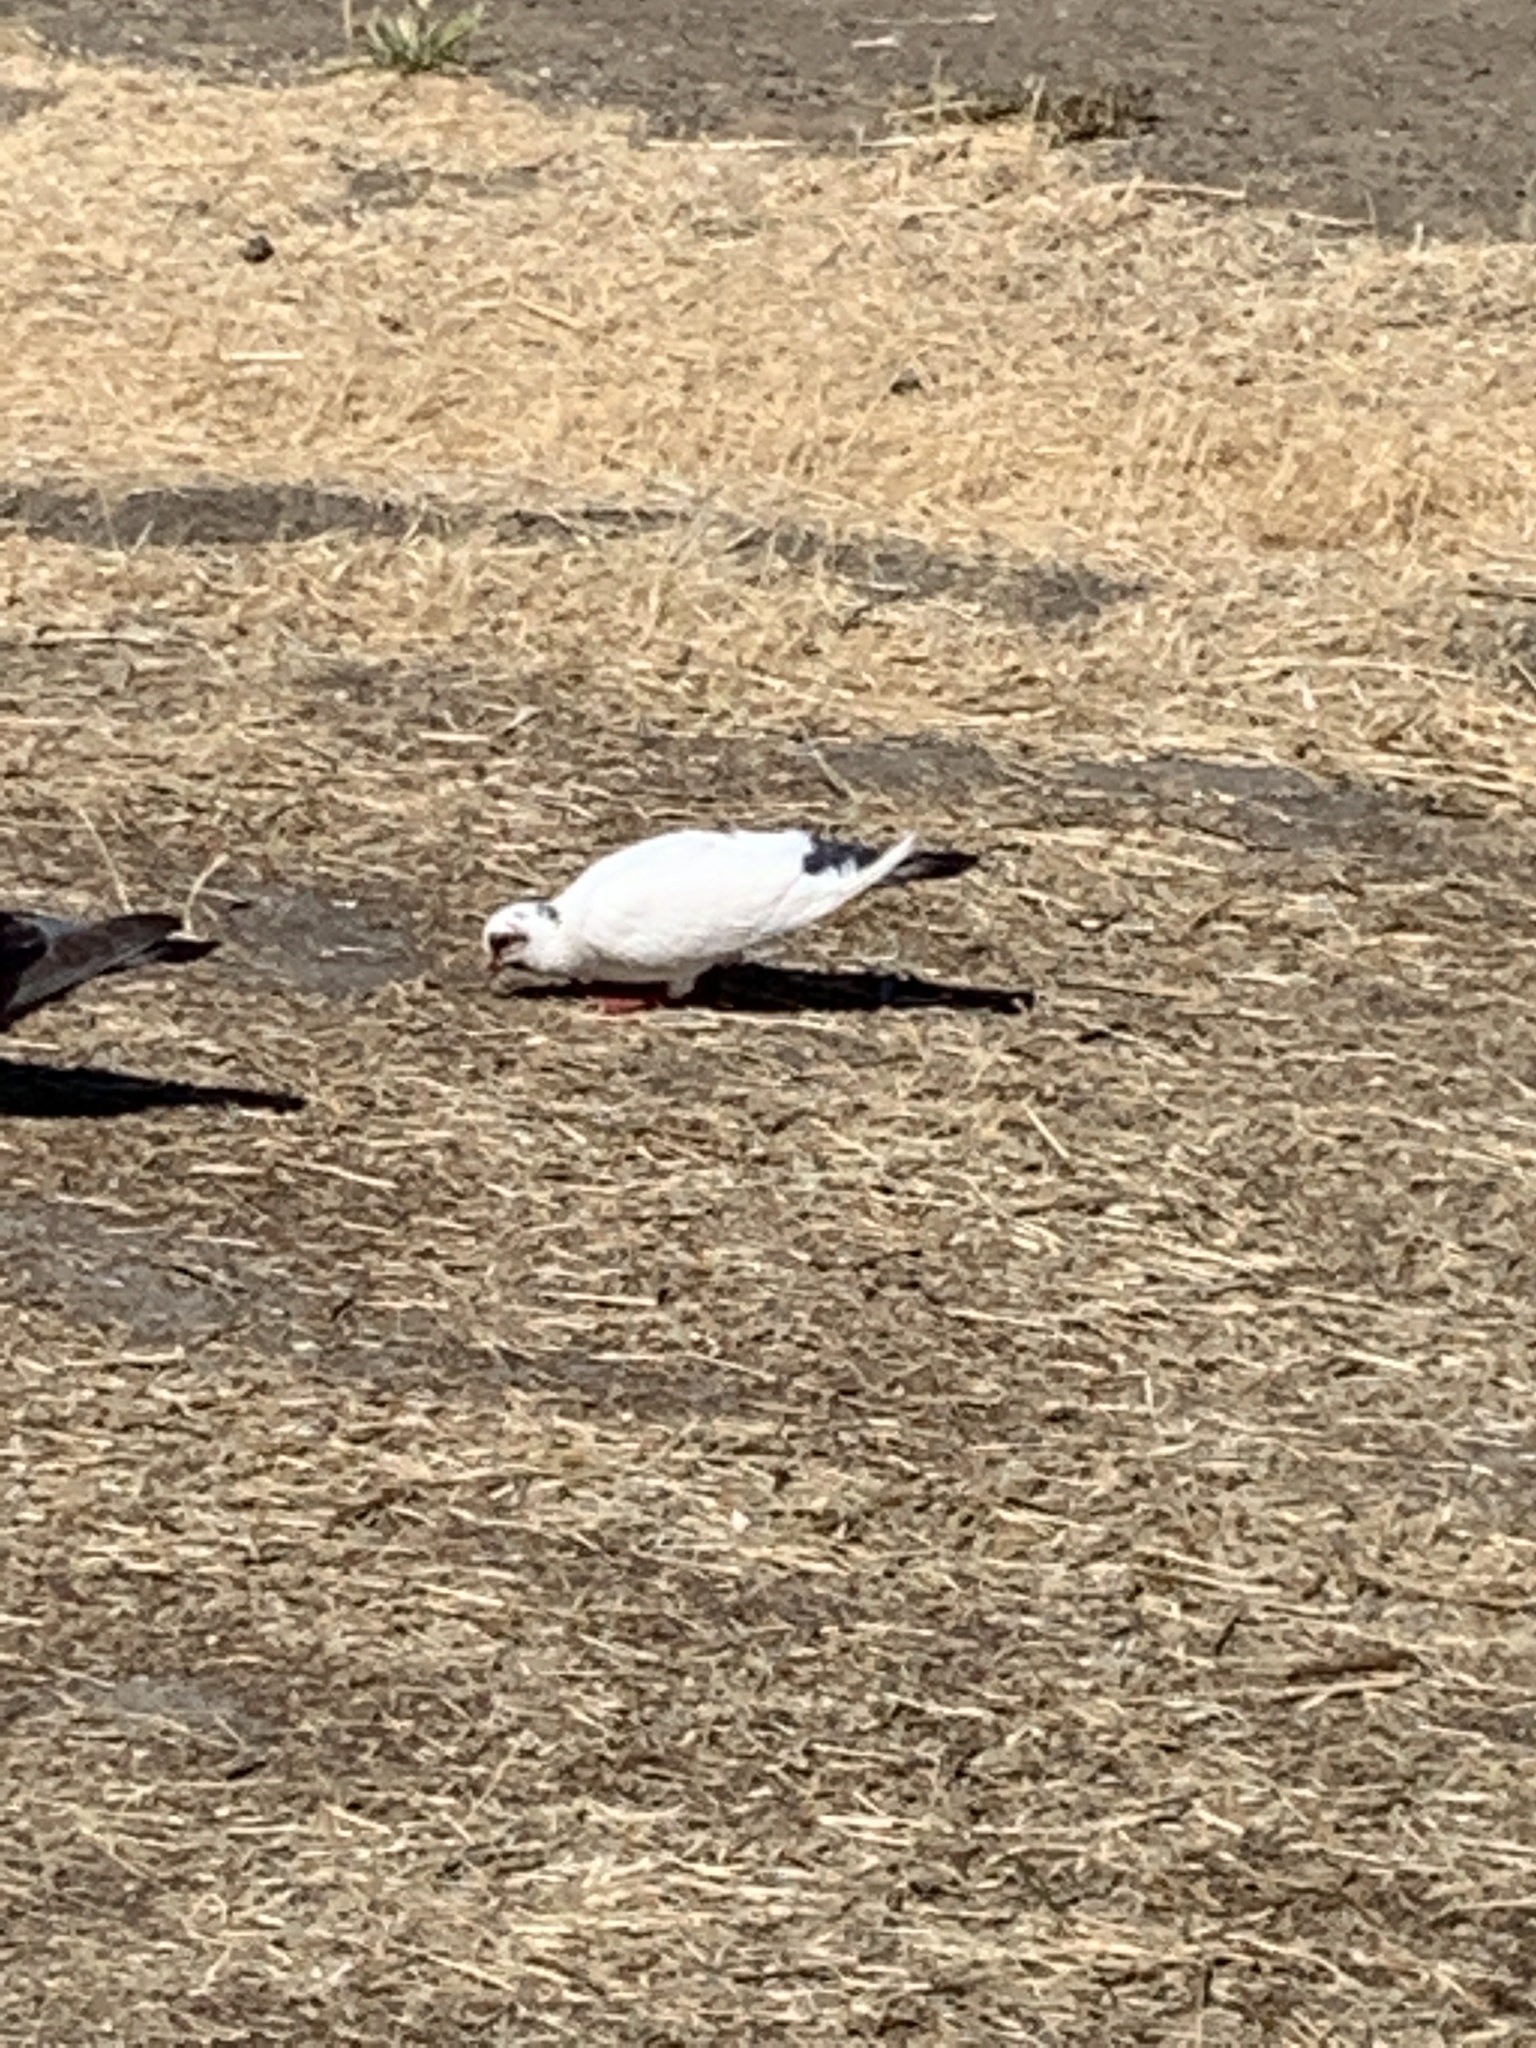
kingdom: Animalia
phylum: Chordata
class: Aves
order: Columbiformes
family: Columbidae
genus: Columba
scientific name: Columba livia
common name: Rock pigeon
